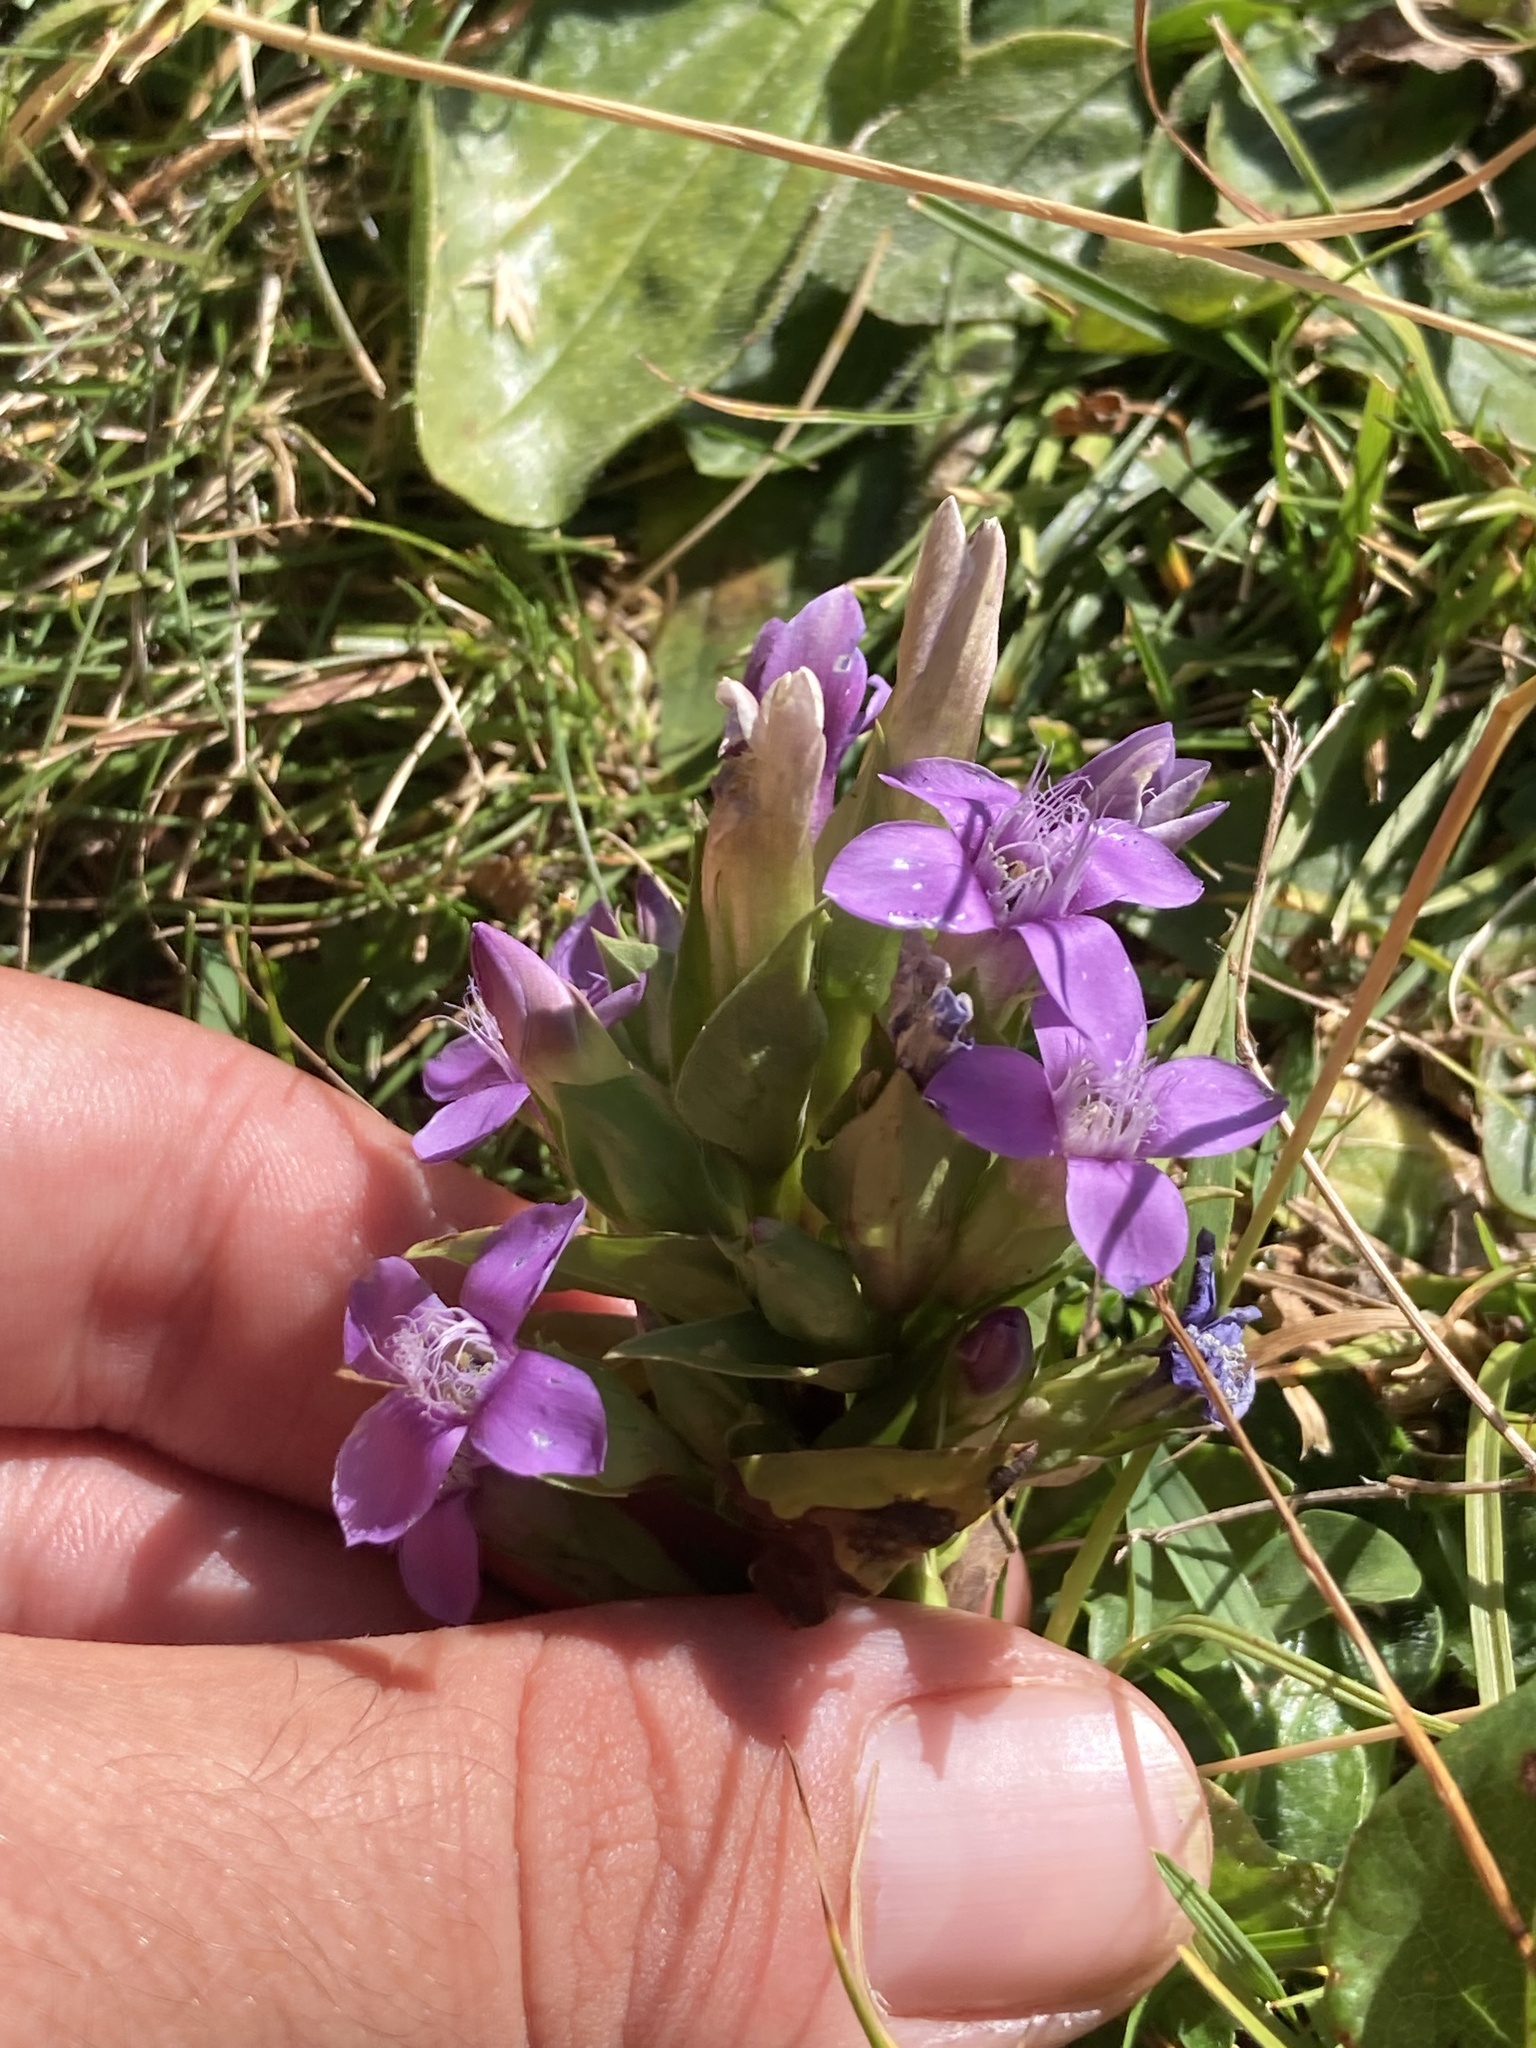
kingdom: Plantae
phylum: Tracheophyta
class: Magnoliopsida
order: Gentianales
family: Gentianaceae
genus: Gentianella
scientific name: Gentianella campestris
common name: Field gentian
